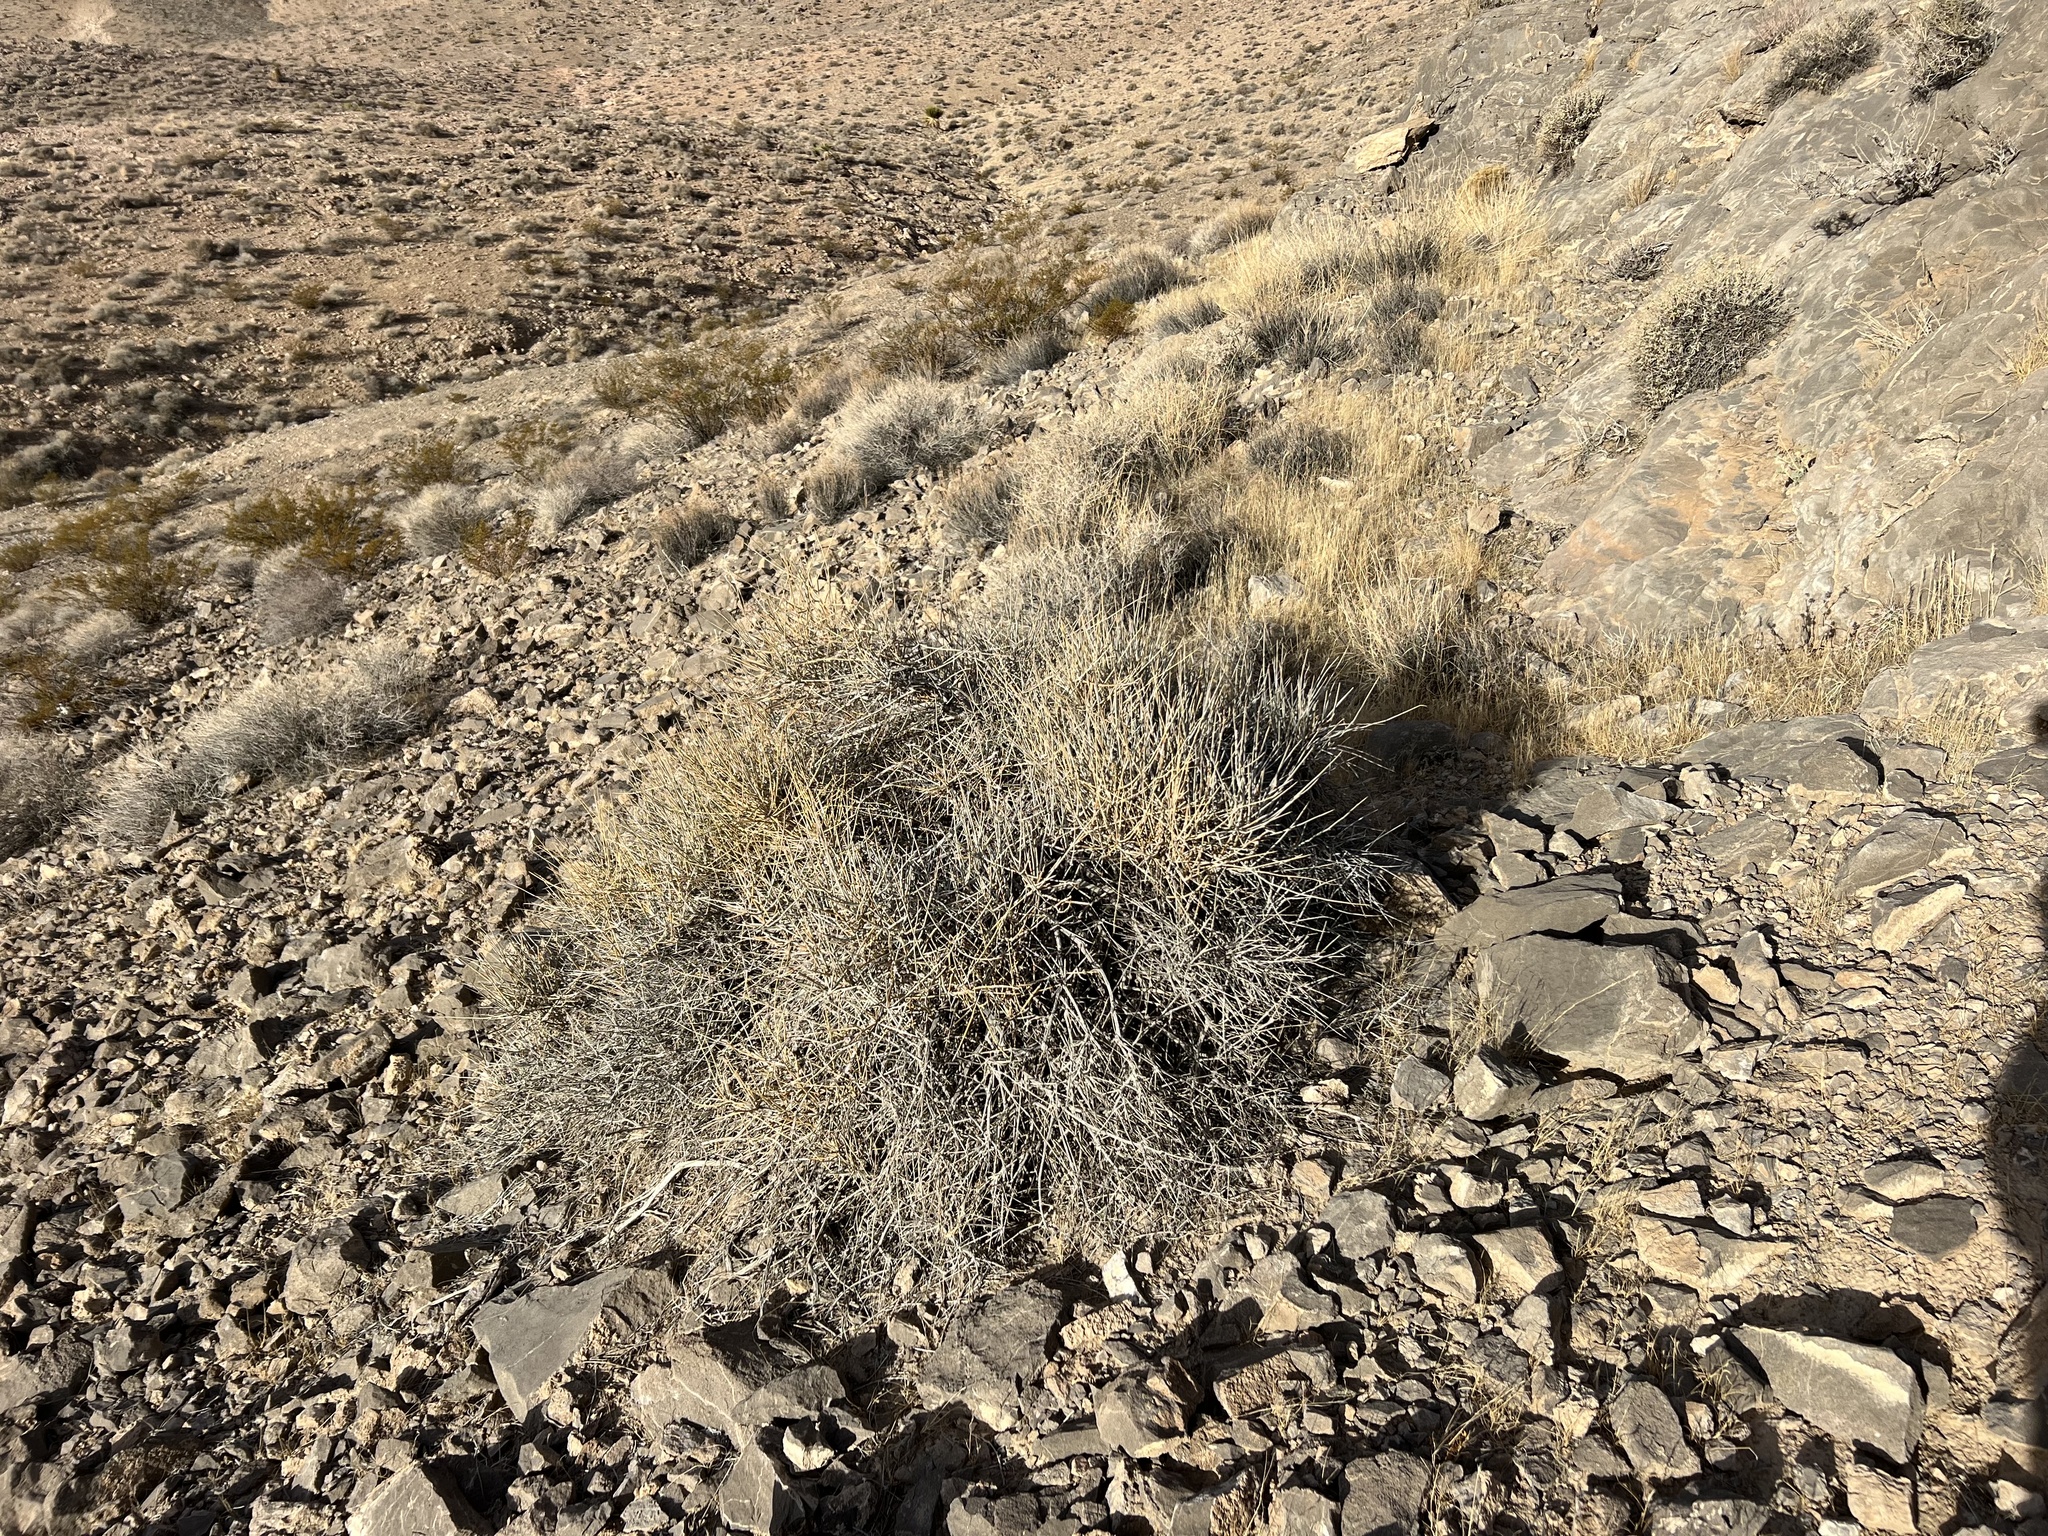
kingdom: Plantae
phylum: Tracheophyta
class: Gnetopsida
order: Ephedrales
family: Ephedraceae
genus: Ephedra
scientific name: Ephedra nevadensis
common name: Gray ephedra
